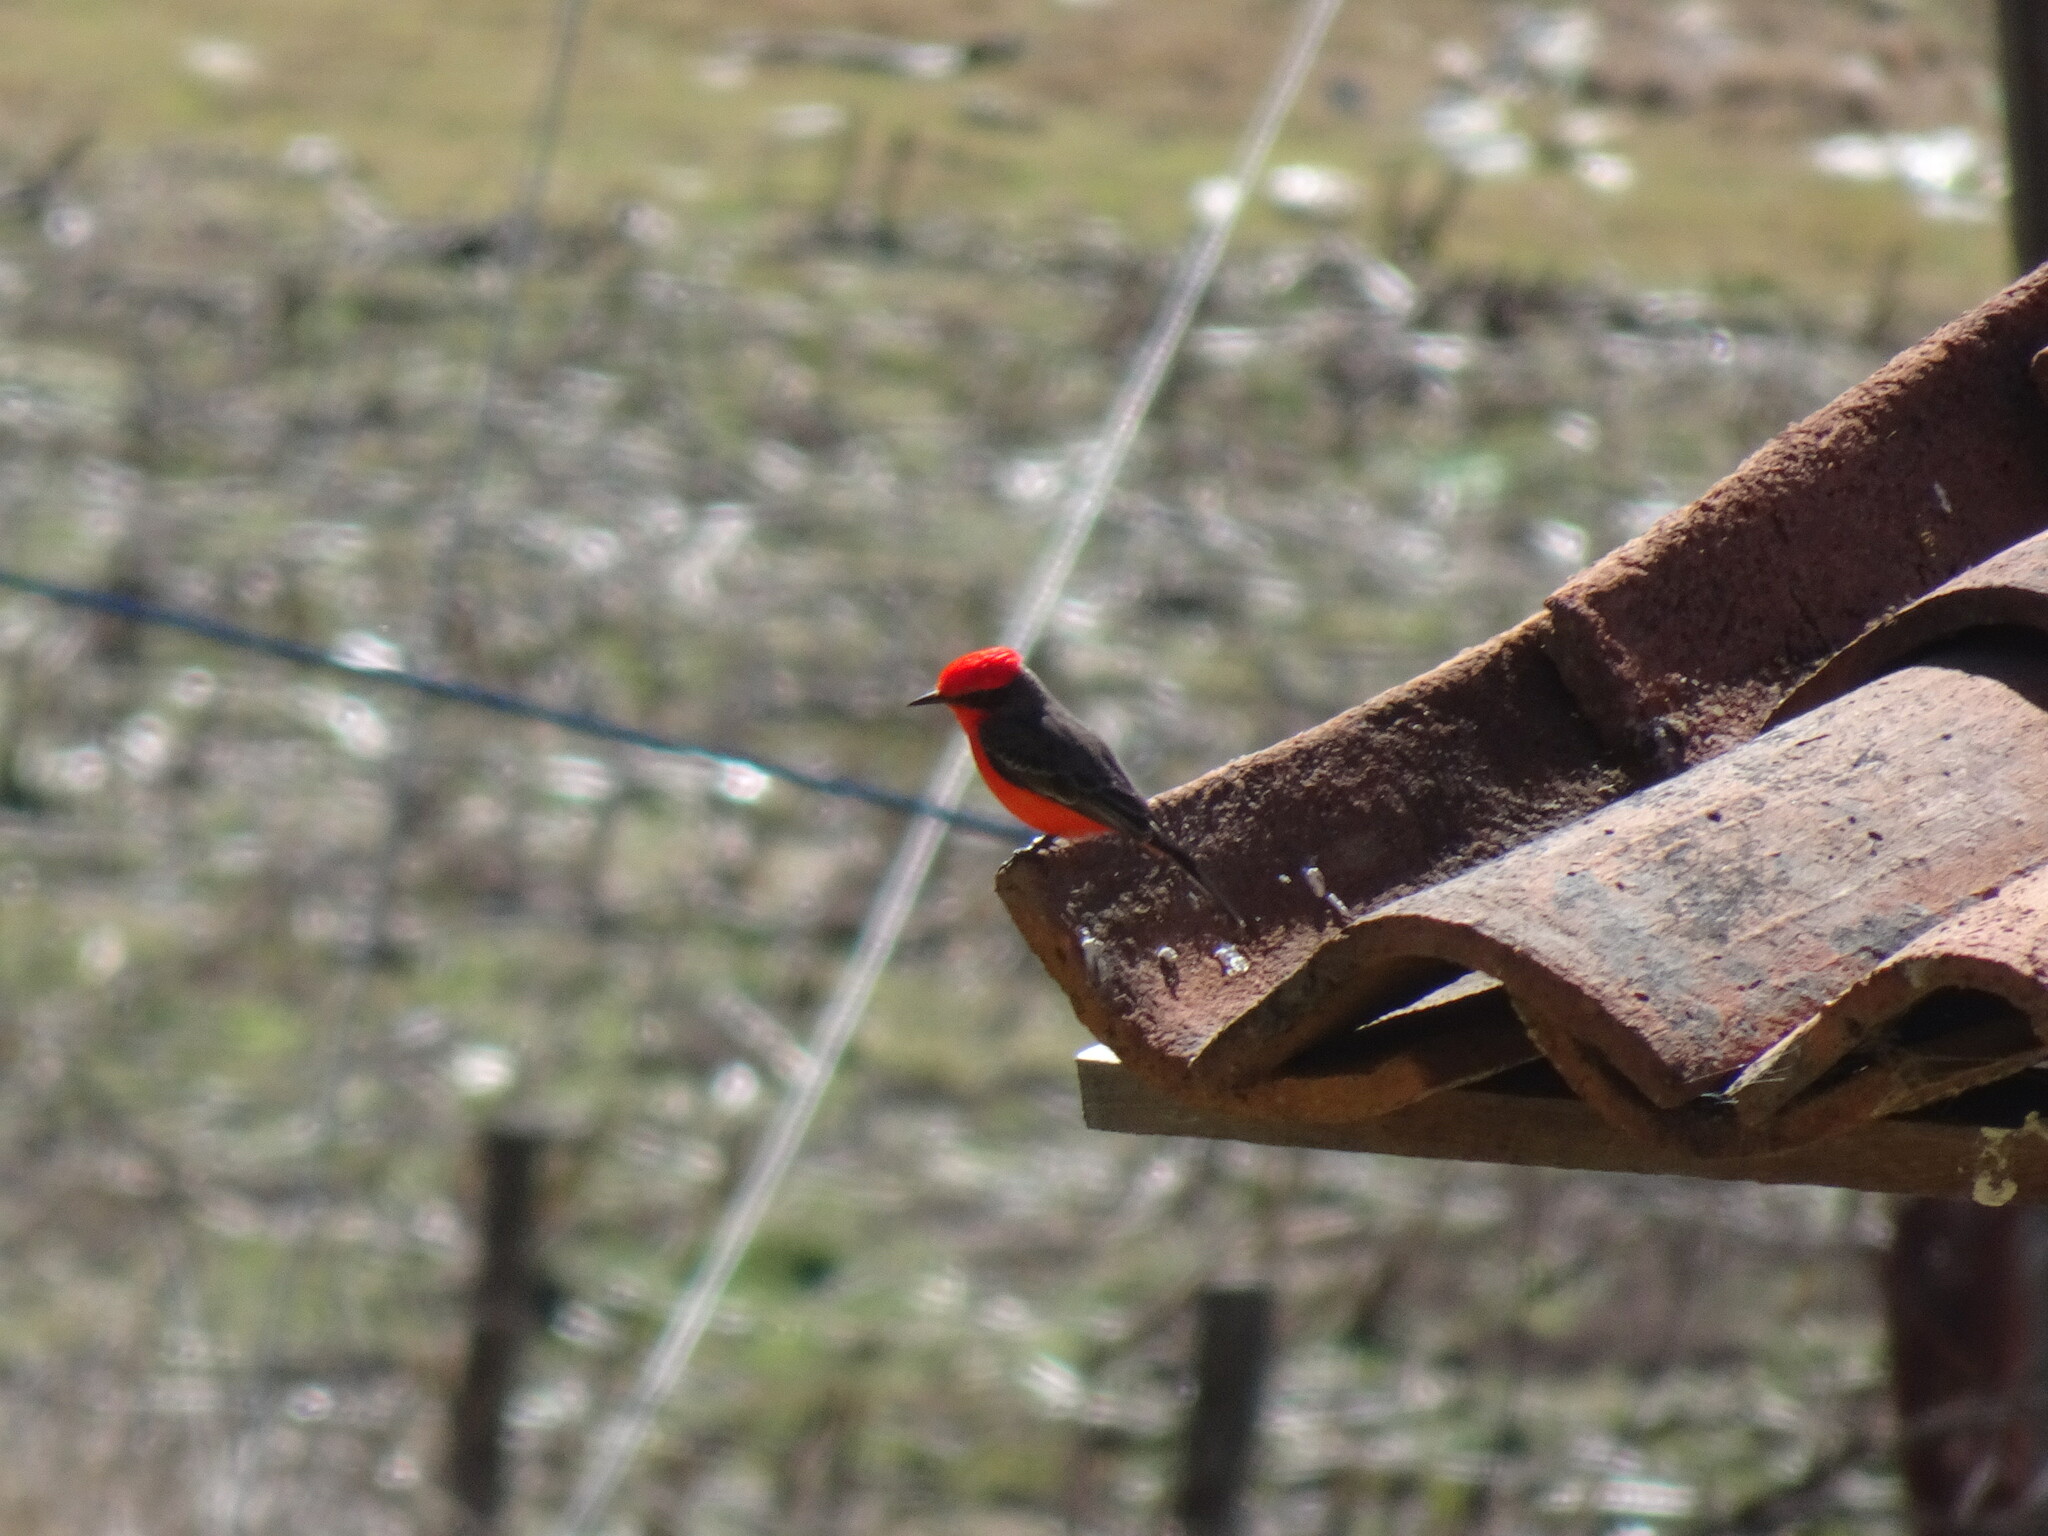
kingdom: Animalia
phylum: Chordata
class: Aves
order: Passeriformes
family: Tyrannidae
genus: Pyrocephalus
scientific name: Pyrocephalus rubinus
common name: Vermilion flycatcher
